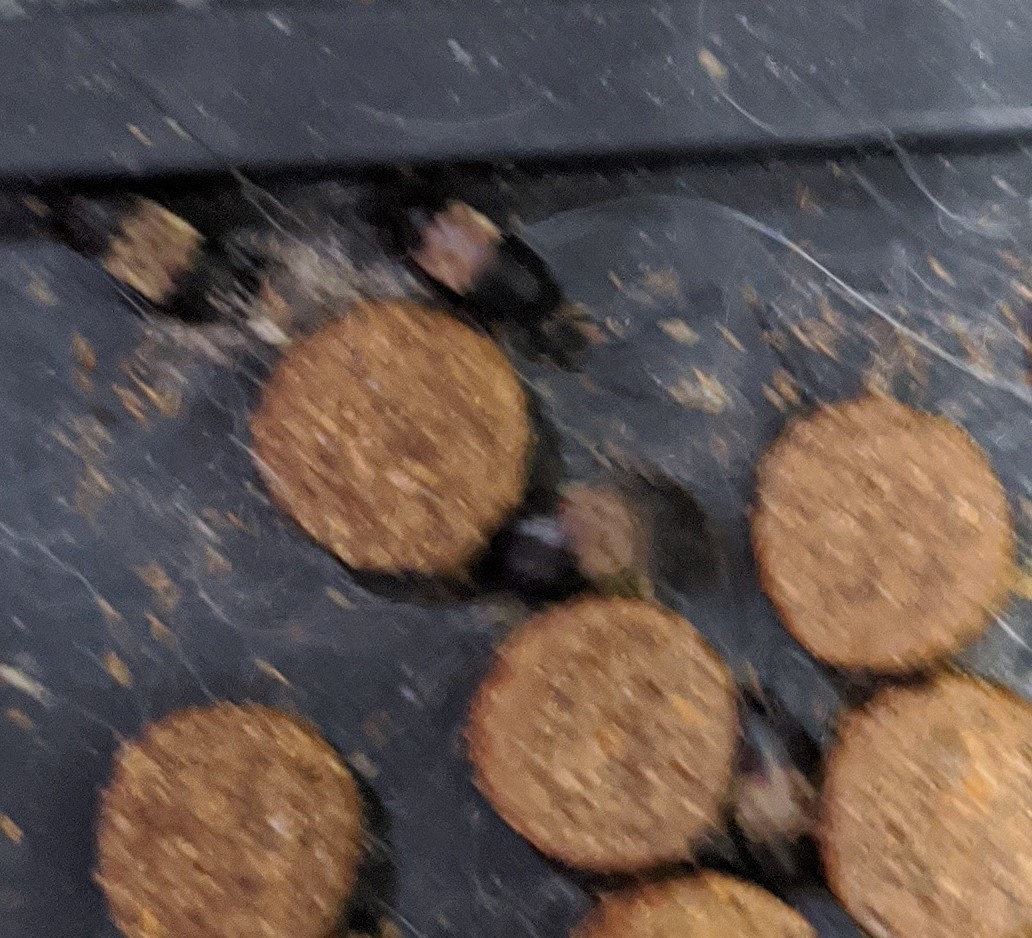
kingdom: Animalia
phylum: Arthropoda
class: Insecta
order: Coleoptera
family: Dermestidae
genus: Dermestes
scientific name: Dermestes lardarius
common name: Larder beetle
